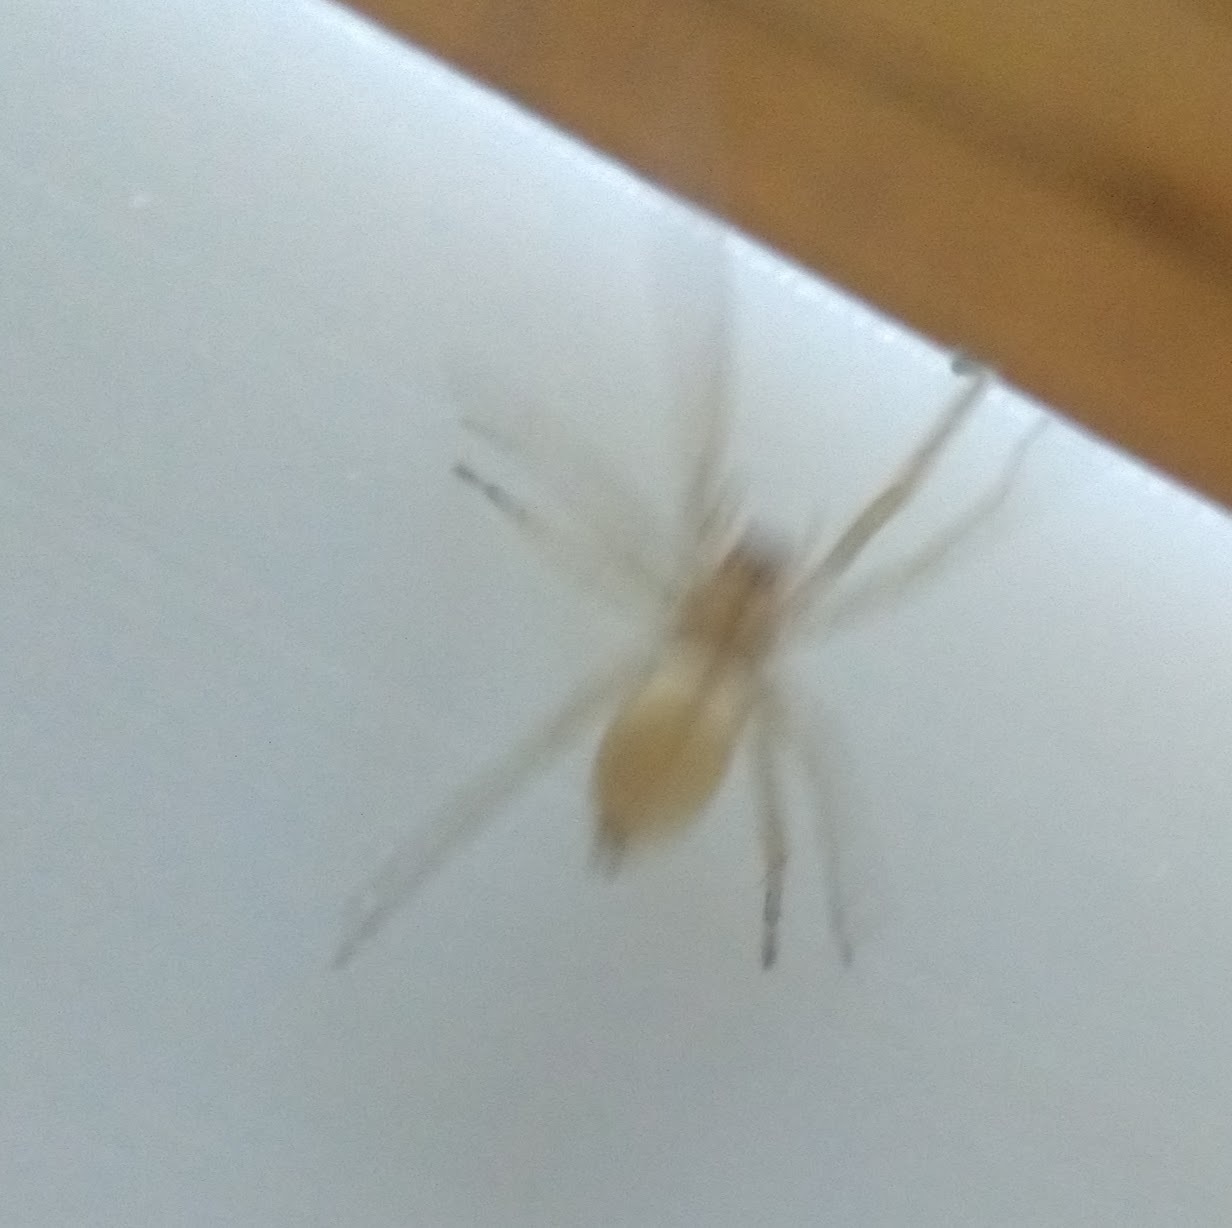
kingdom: Animalia
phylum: Arthropoda
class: Arachnida
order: Araneae
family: Cheiracanthiidae
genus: Cheiracanthium
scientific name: Cheiracanthium
